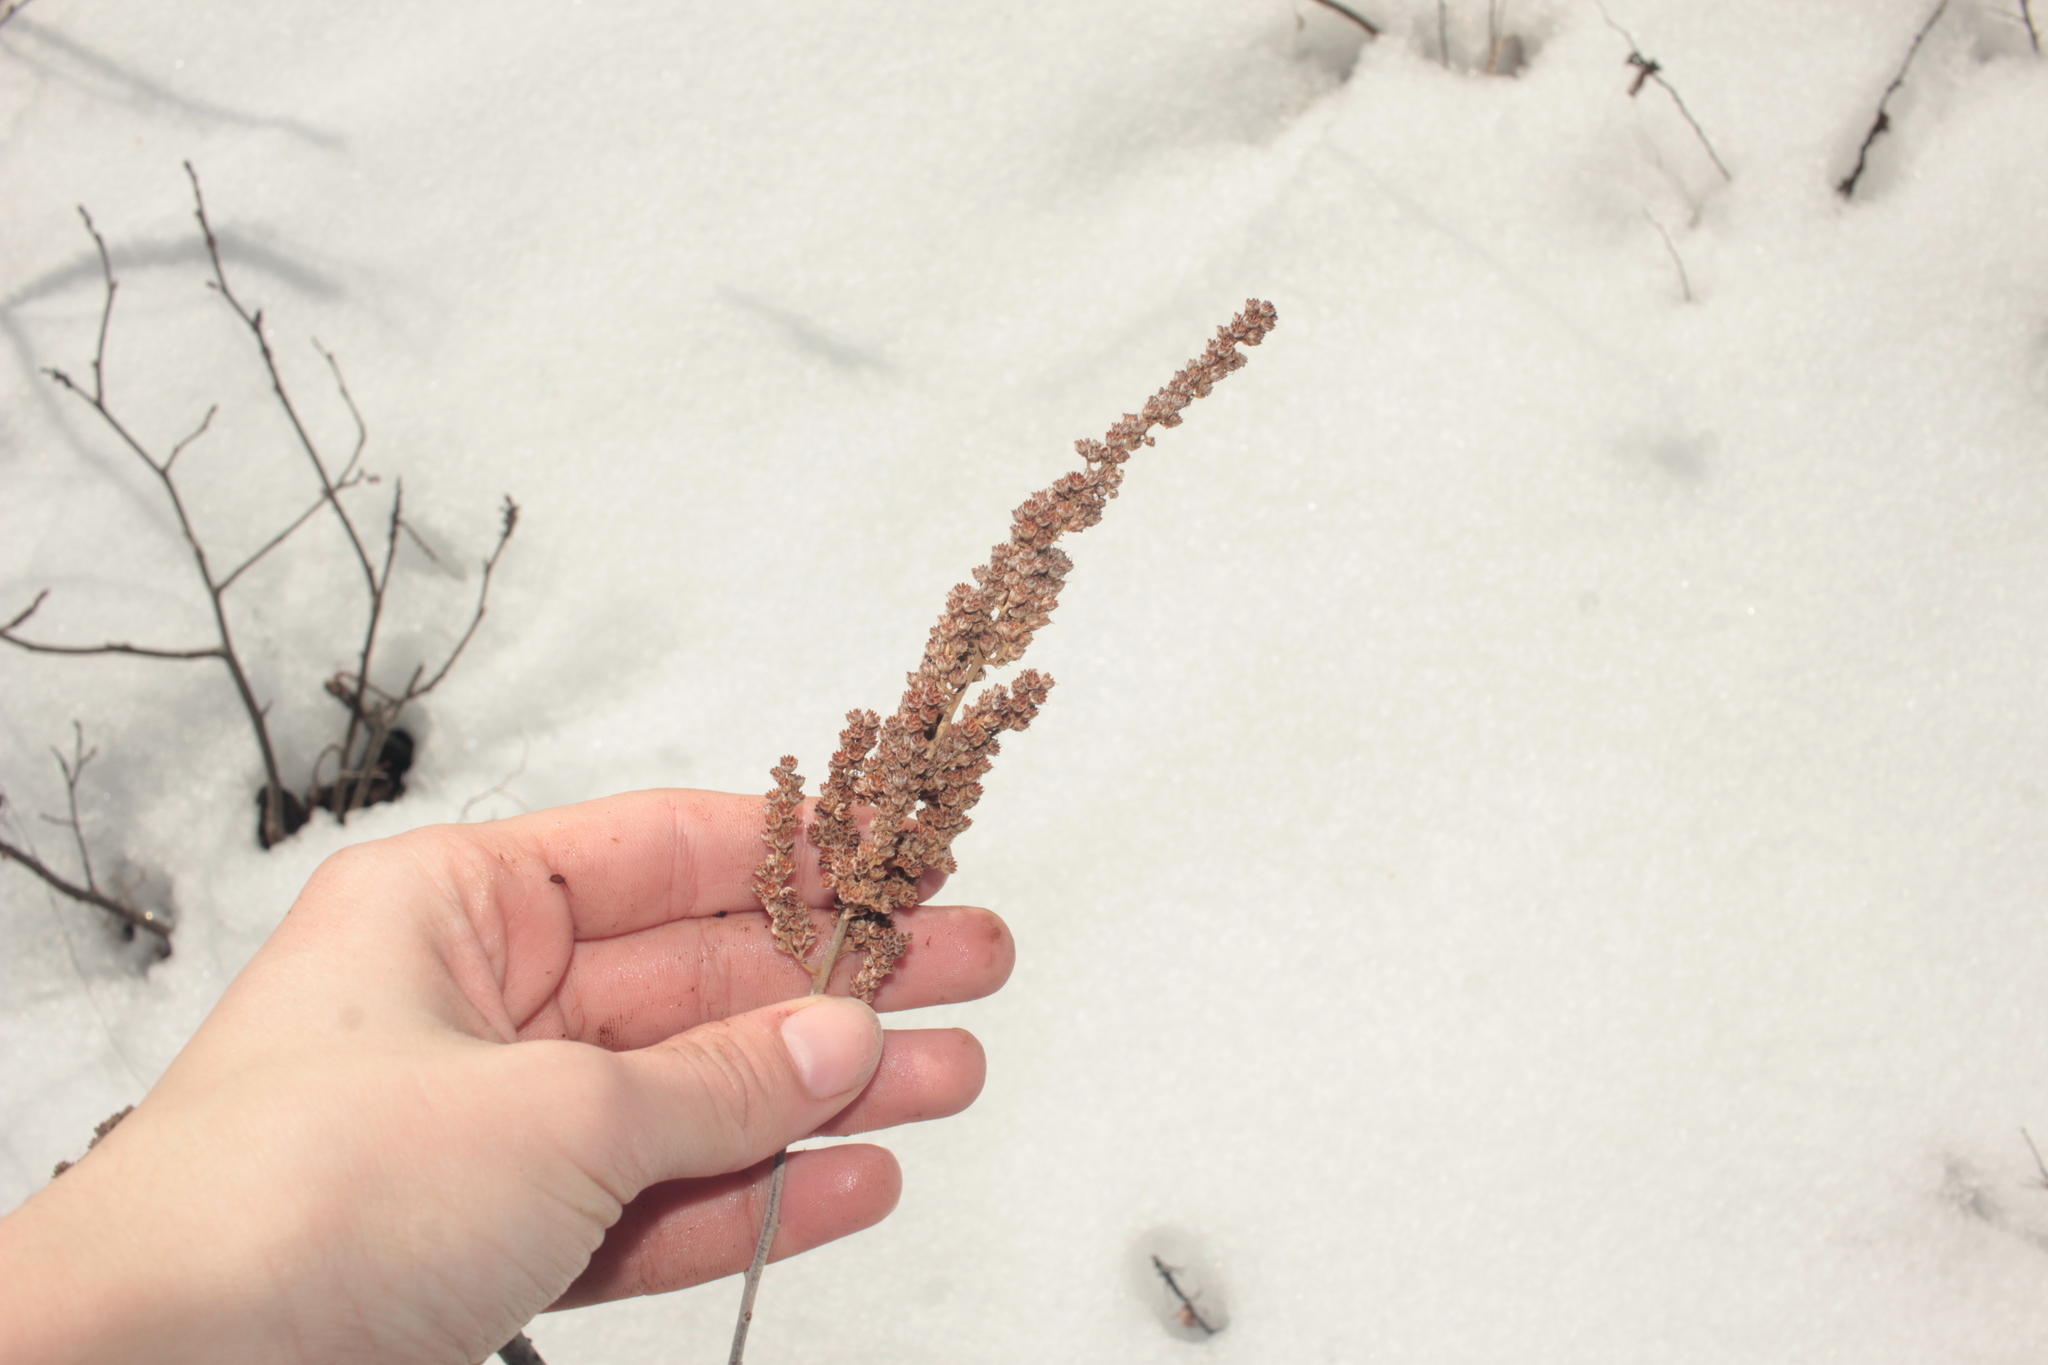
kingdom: Plantae
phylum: Tracheophyta
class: Magnoliopsida
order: Rosales
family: Rosaceae
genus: Spiraea
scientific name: Spiraea tomentosa
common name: Hardhack
